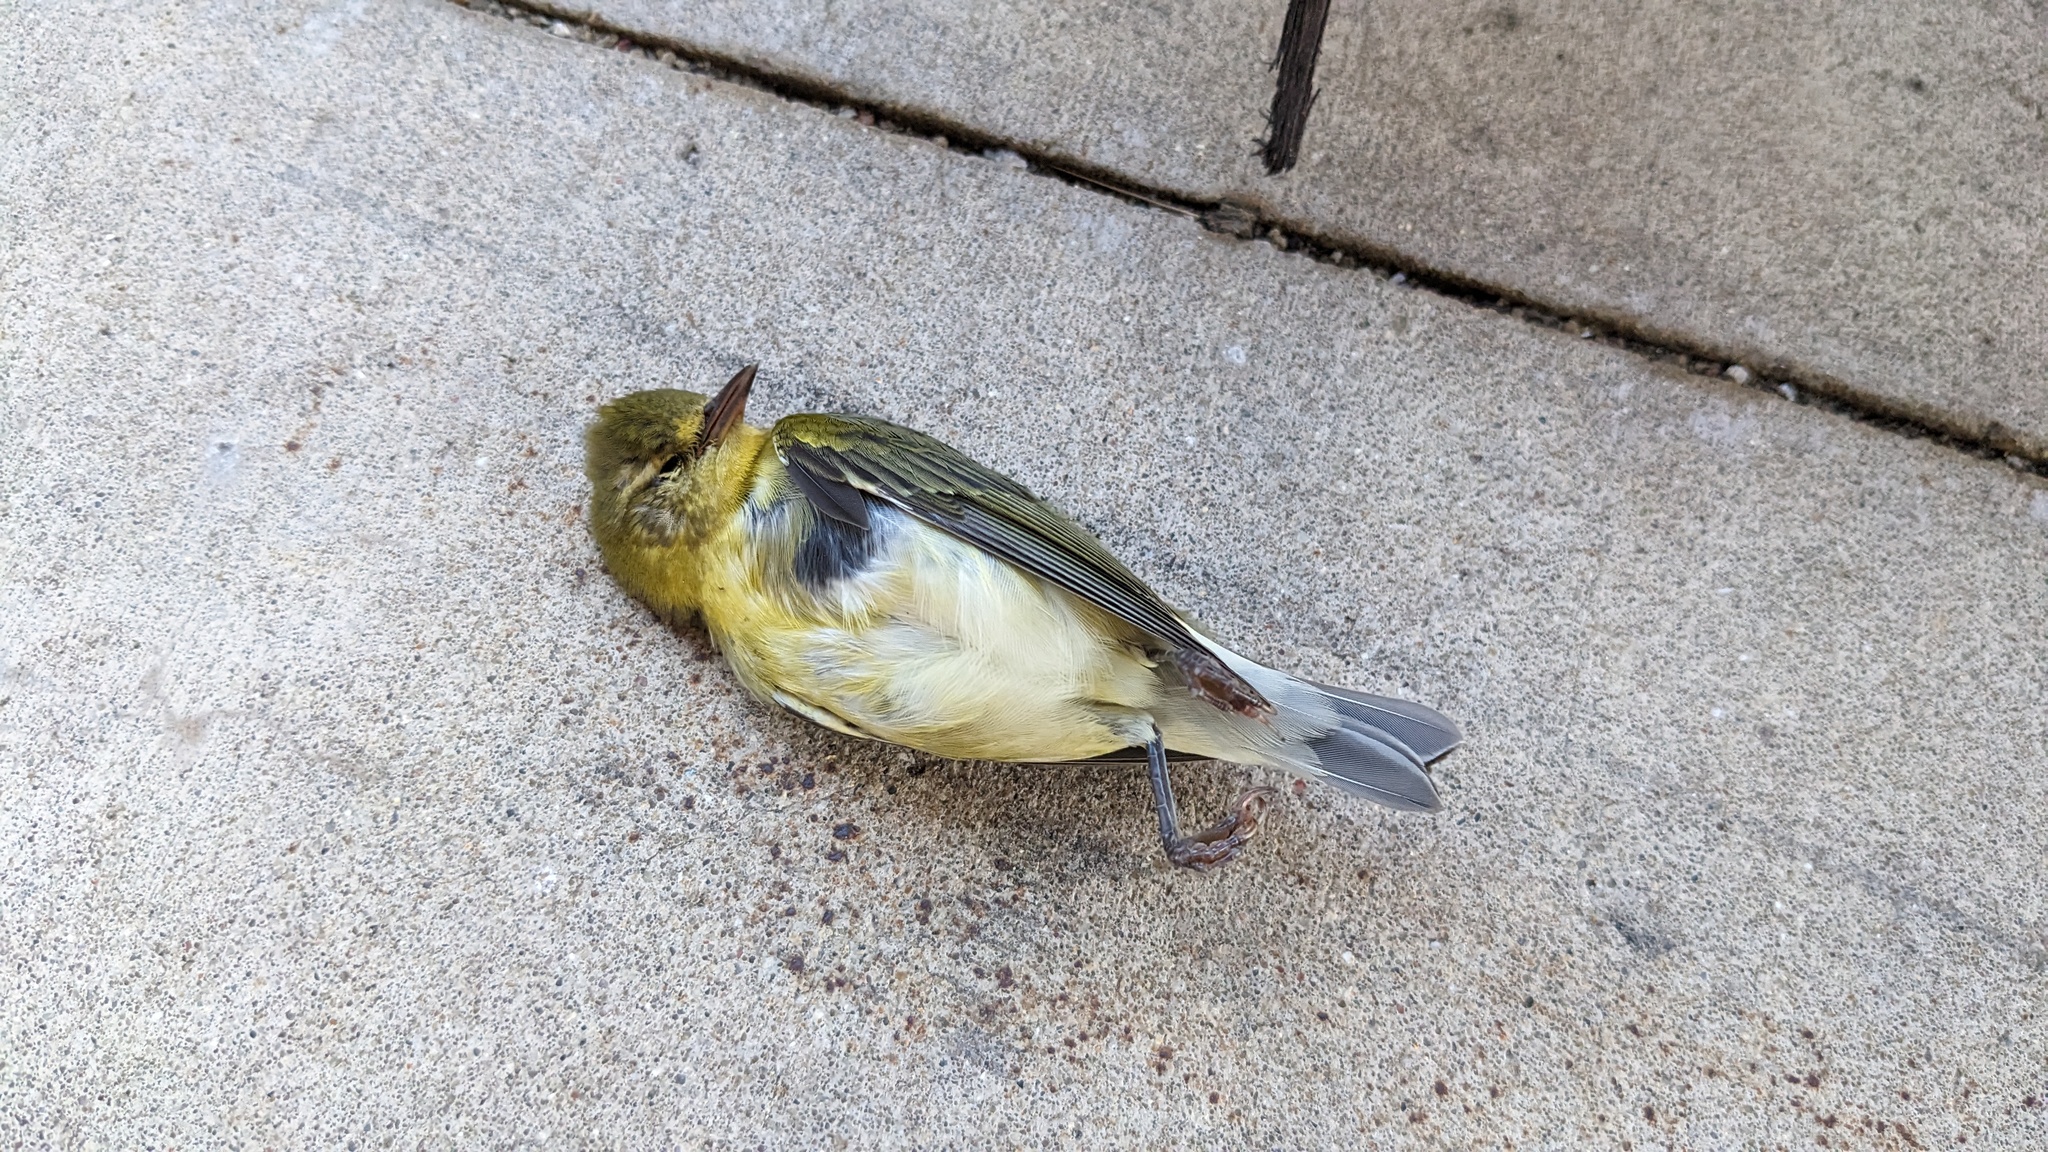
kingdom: Animalia
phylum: Chordata
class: Aves
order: Passeriformes
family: Parulidae
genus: Leiothlypis
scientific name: Leiothlypis peregrina
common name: Tennessee warbler
